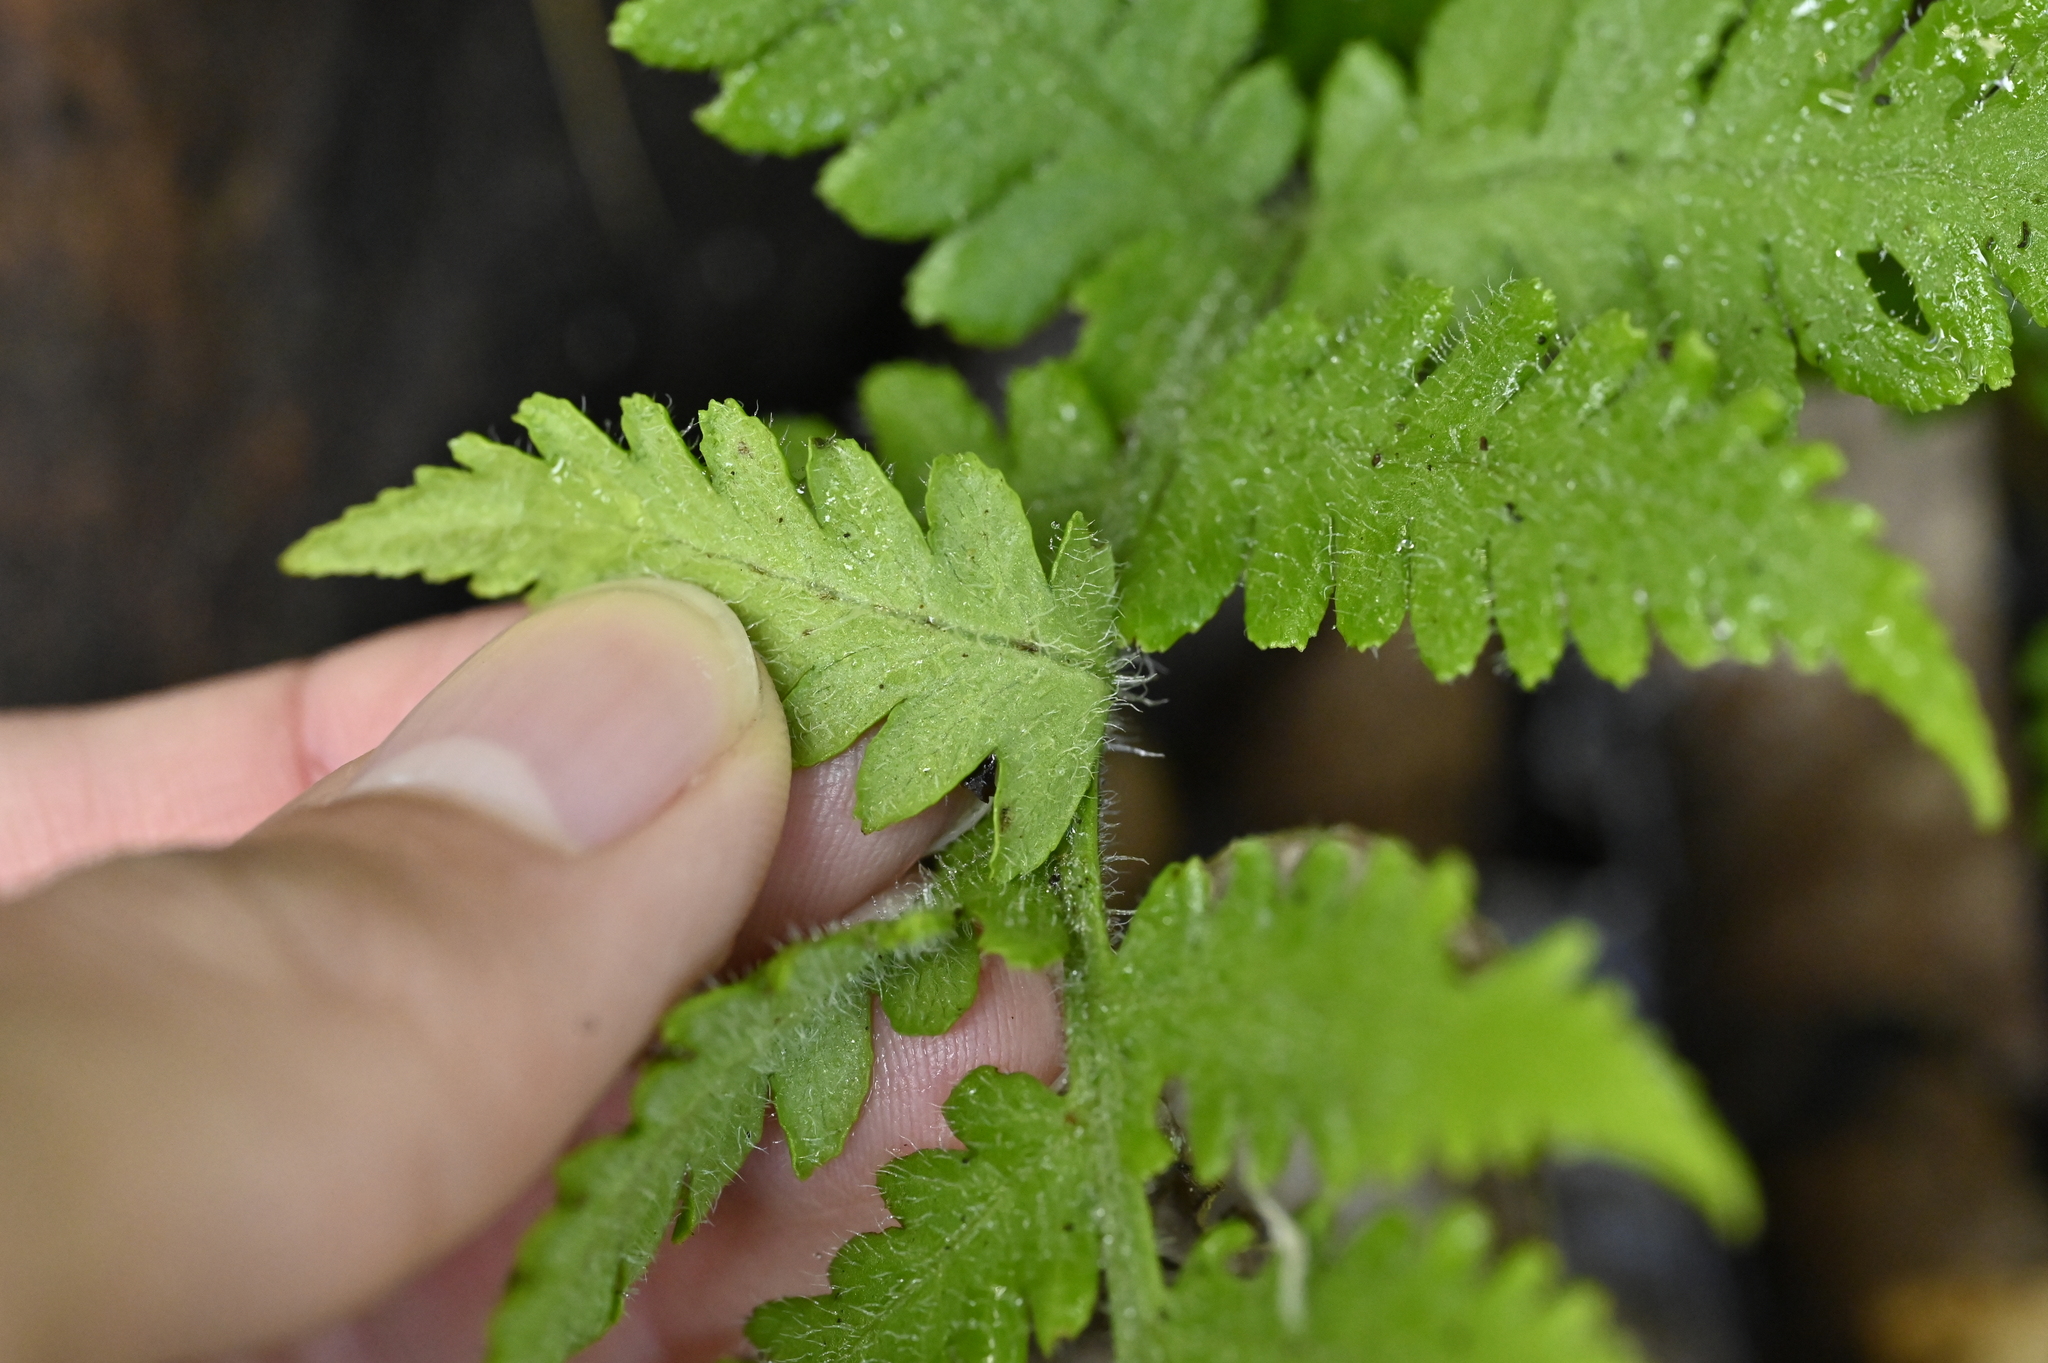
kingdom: Plantae
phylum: Tracheophyta
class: Polypodiopsida
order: Polypodiales
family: Athyriaceae
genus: Deparia
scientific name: Deparia petersenii
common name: Japanese false spleenwort
